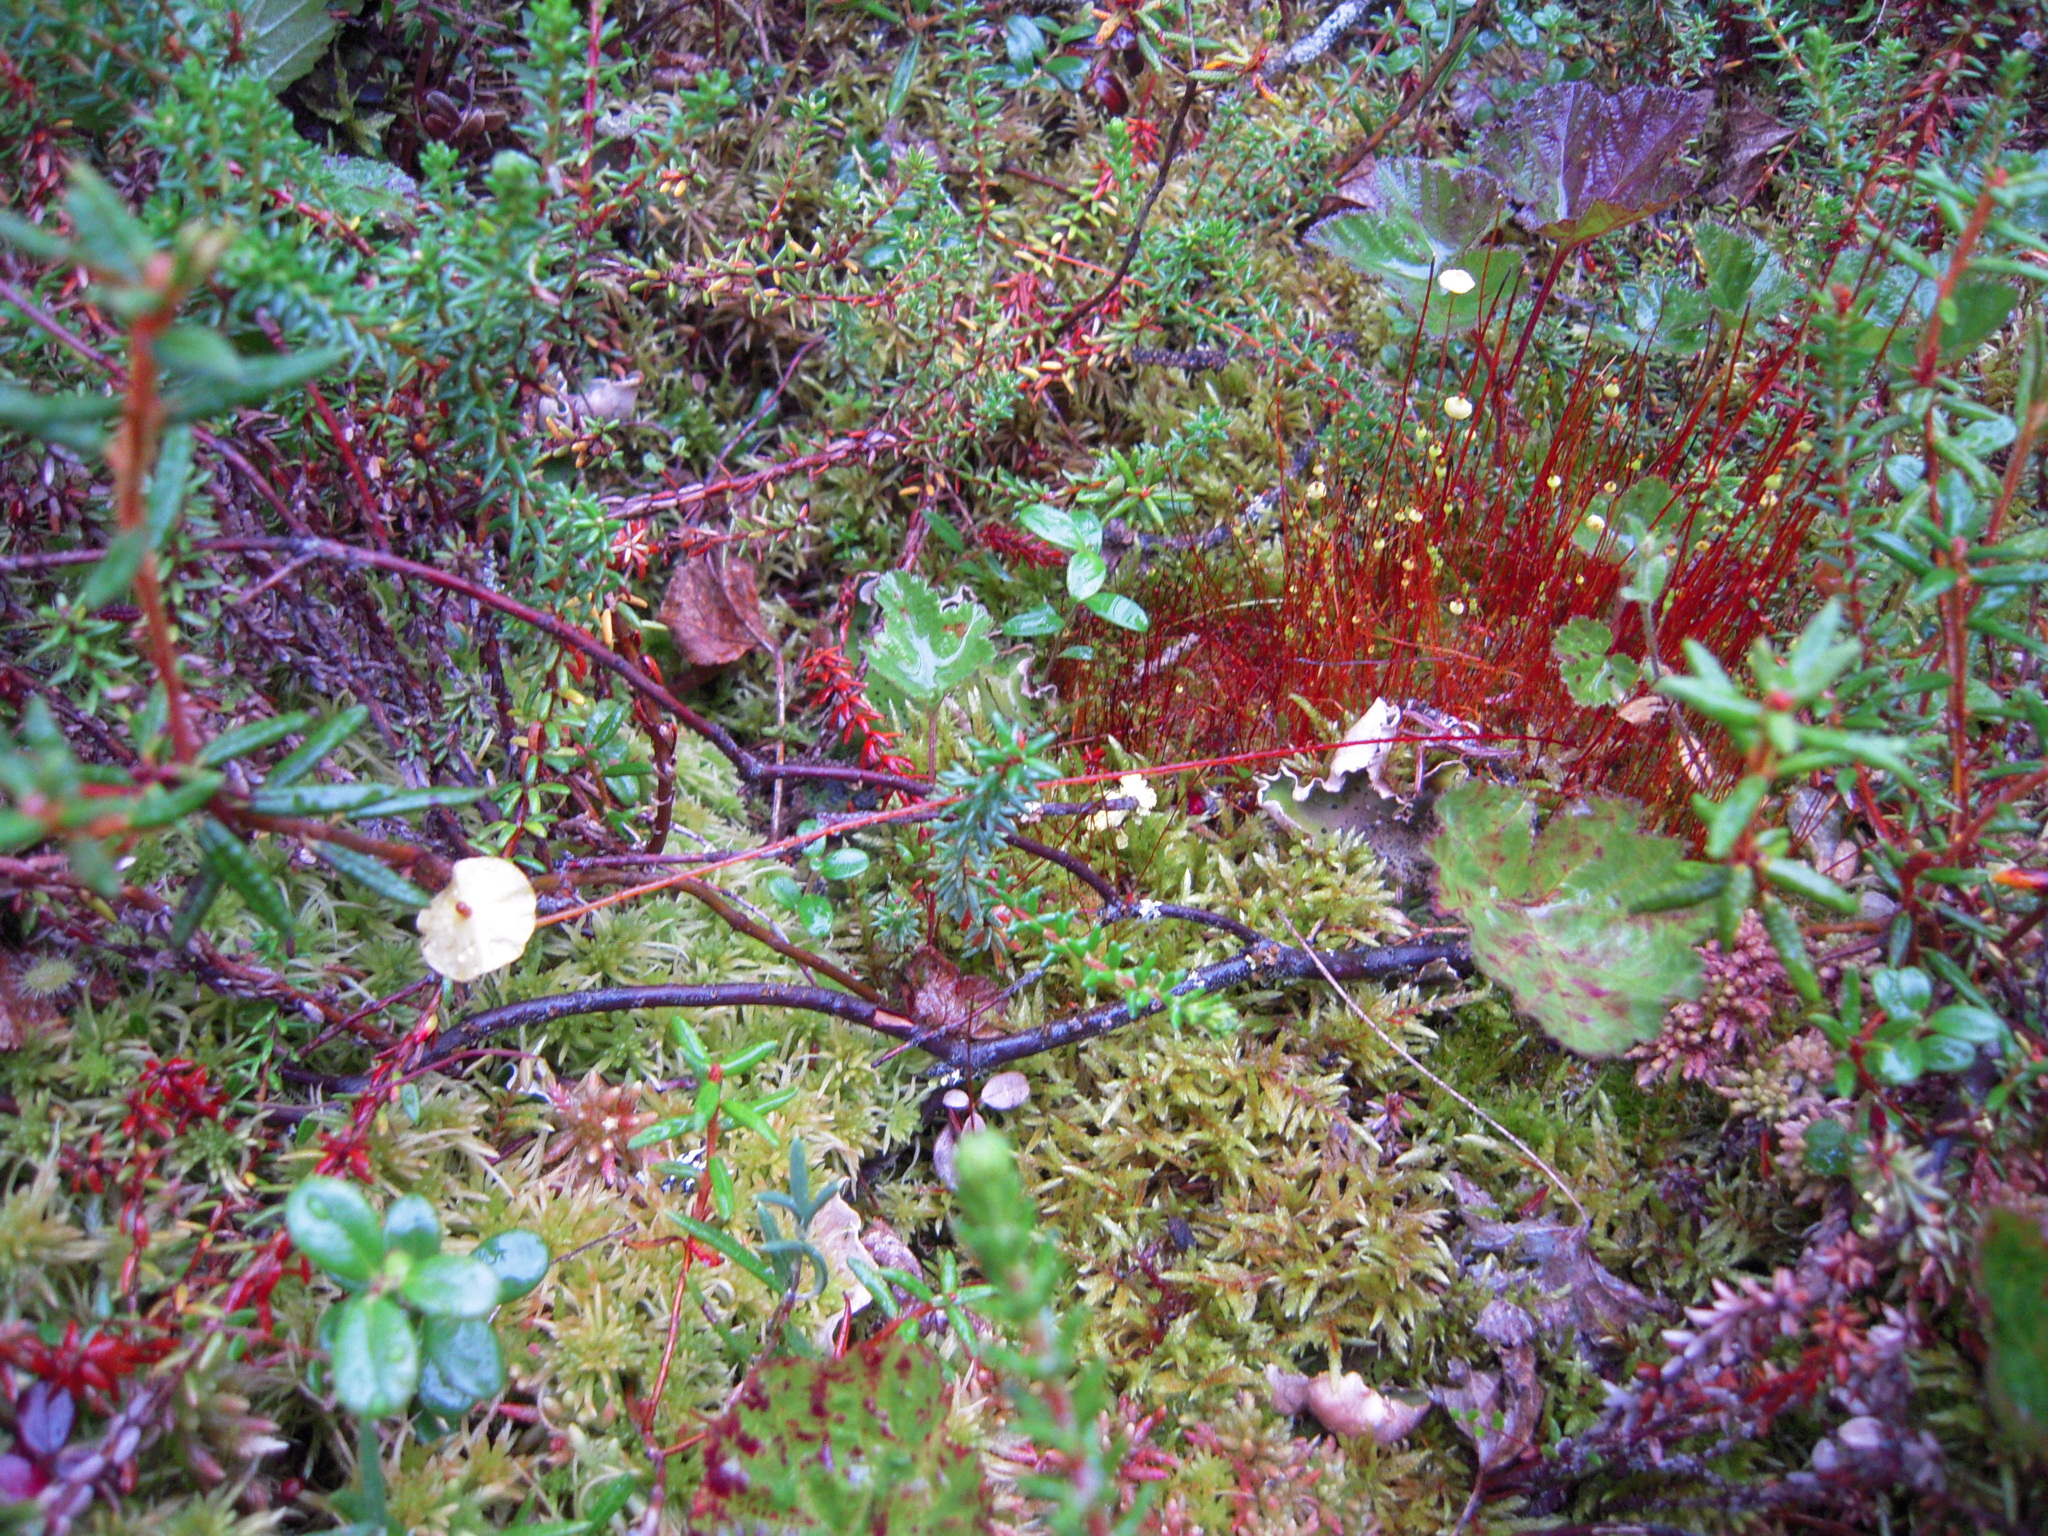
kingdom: Plantae
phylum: Bryophyta
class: Bryopsida
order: Splachnales
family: Splachnaceae
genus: Splachnum
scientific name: Splachnum luteum
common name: Yellow dung moss
